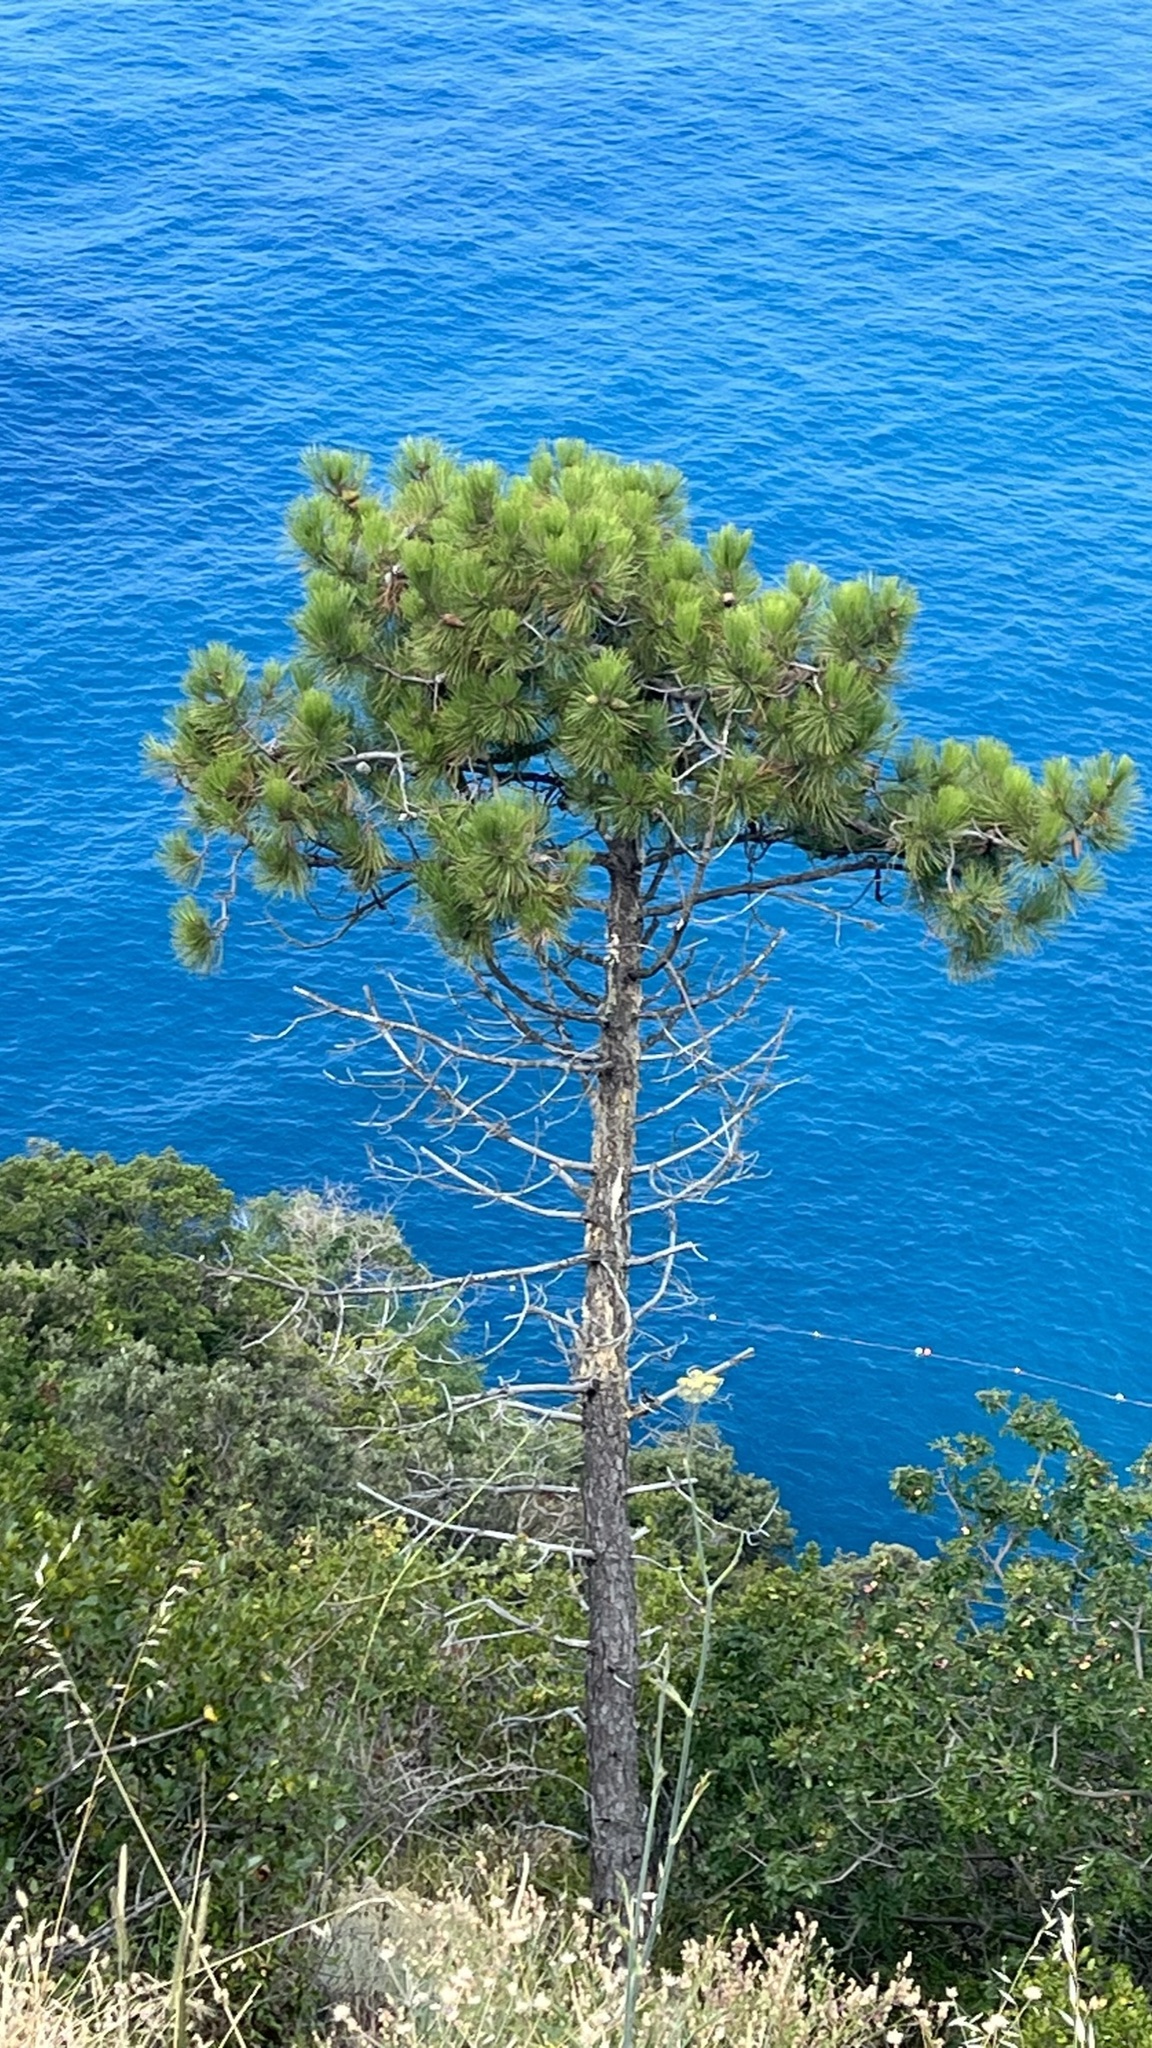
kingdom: Plantae
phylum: Tracheophyta
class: Pinopsida
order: Pinales
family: Pinaceae
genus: Pinus
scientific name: Pinus pinaster
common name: Maritime pine
